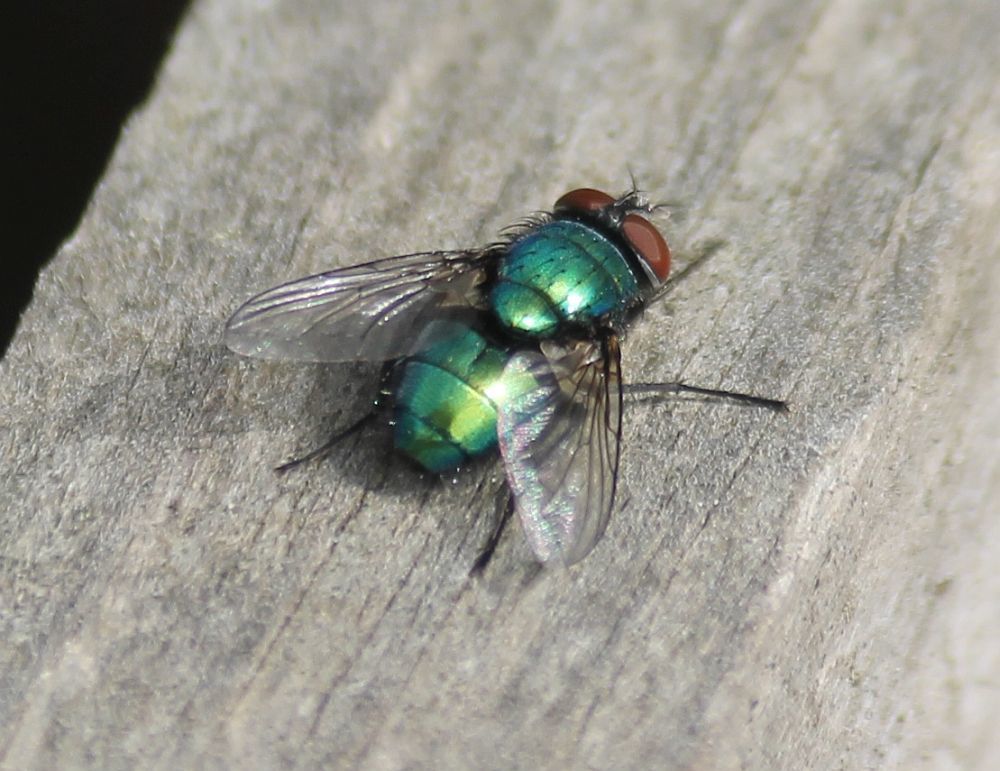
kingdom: Animalia
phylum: Arthropoda
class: Insecta
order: Diptera
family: Calliphoridae
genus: Lucilia
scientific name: Lucilia sericata
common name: Blow fly
